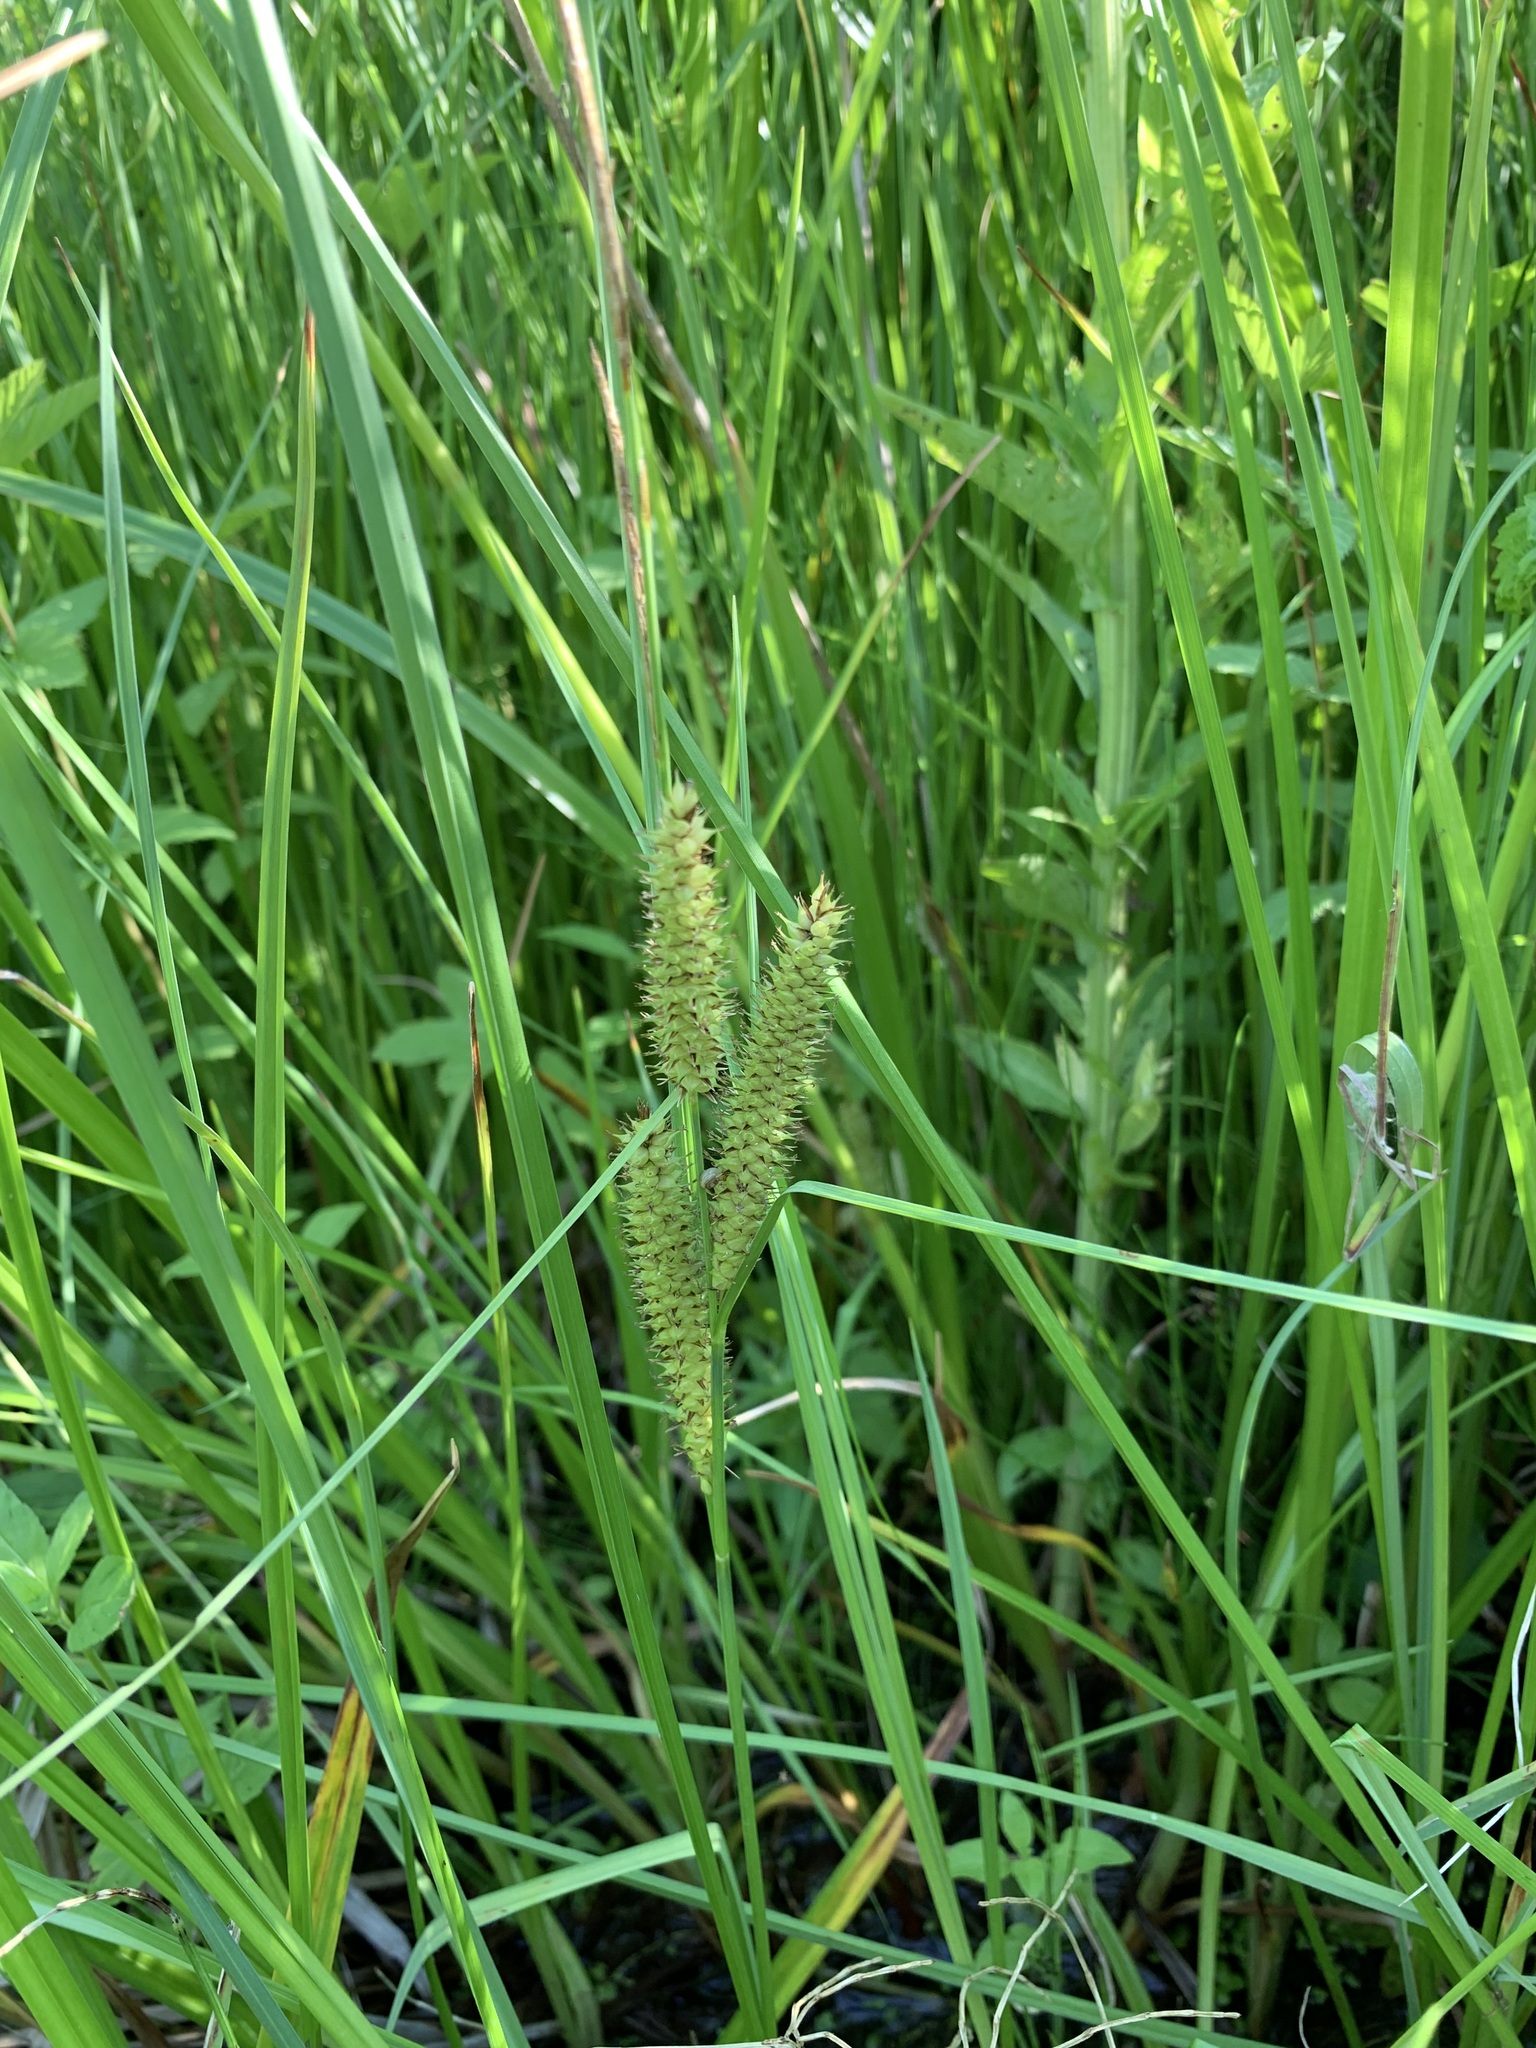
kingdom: Plantae
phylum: Tracheophyta
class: Liliopsida
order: Poales
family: Cyperaceae
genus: Carex
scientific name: Carex rostrata
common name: Bottle sedge
